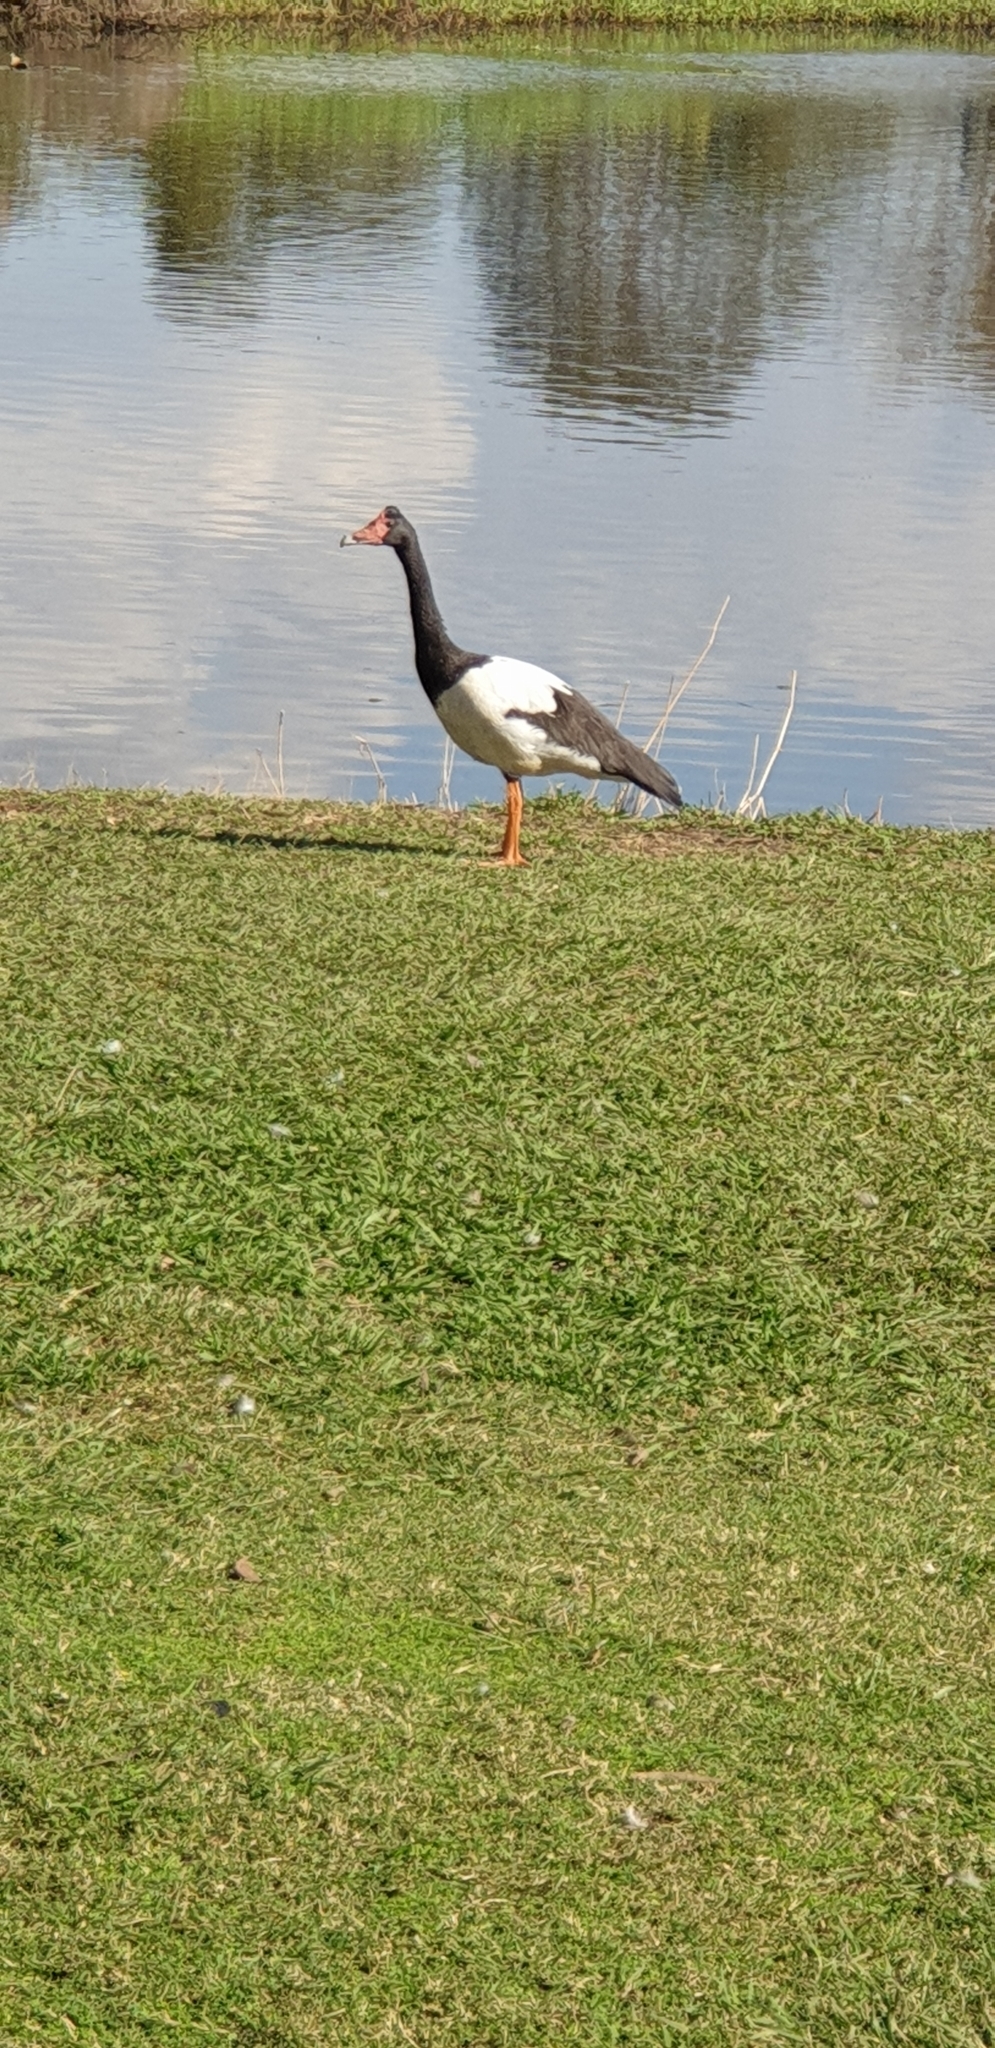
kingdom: Animalia
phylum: Chordata
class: Aves
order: Anseriformes
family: Anseranatidae
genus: Anseranas
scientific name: Anseranas semipalmata
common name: Magpie goose
